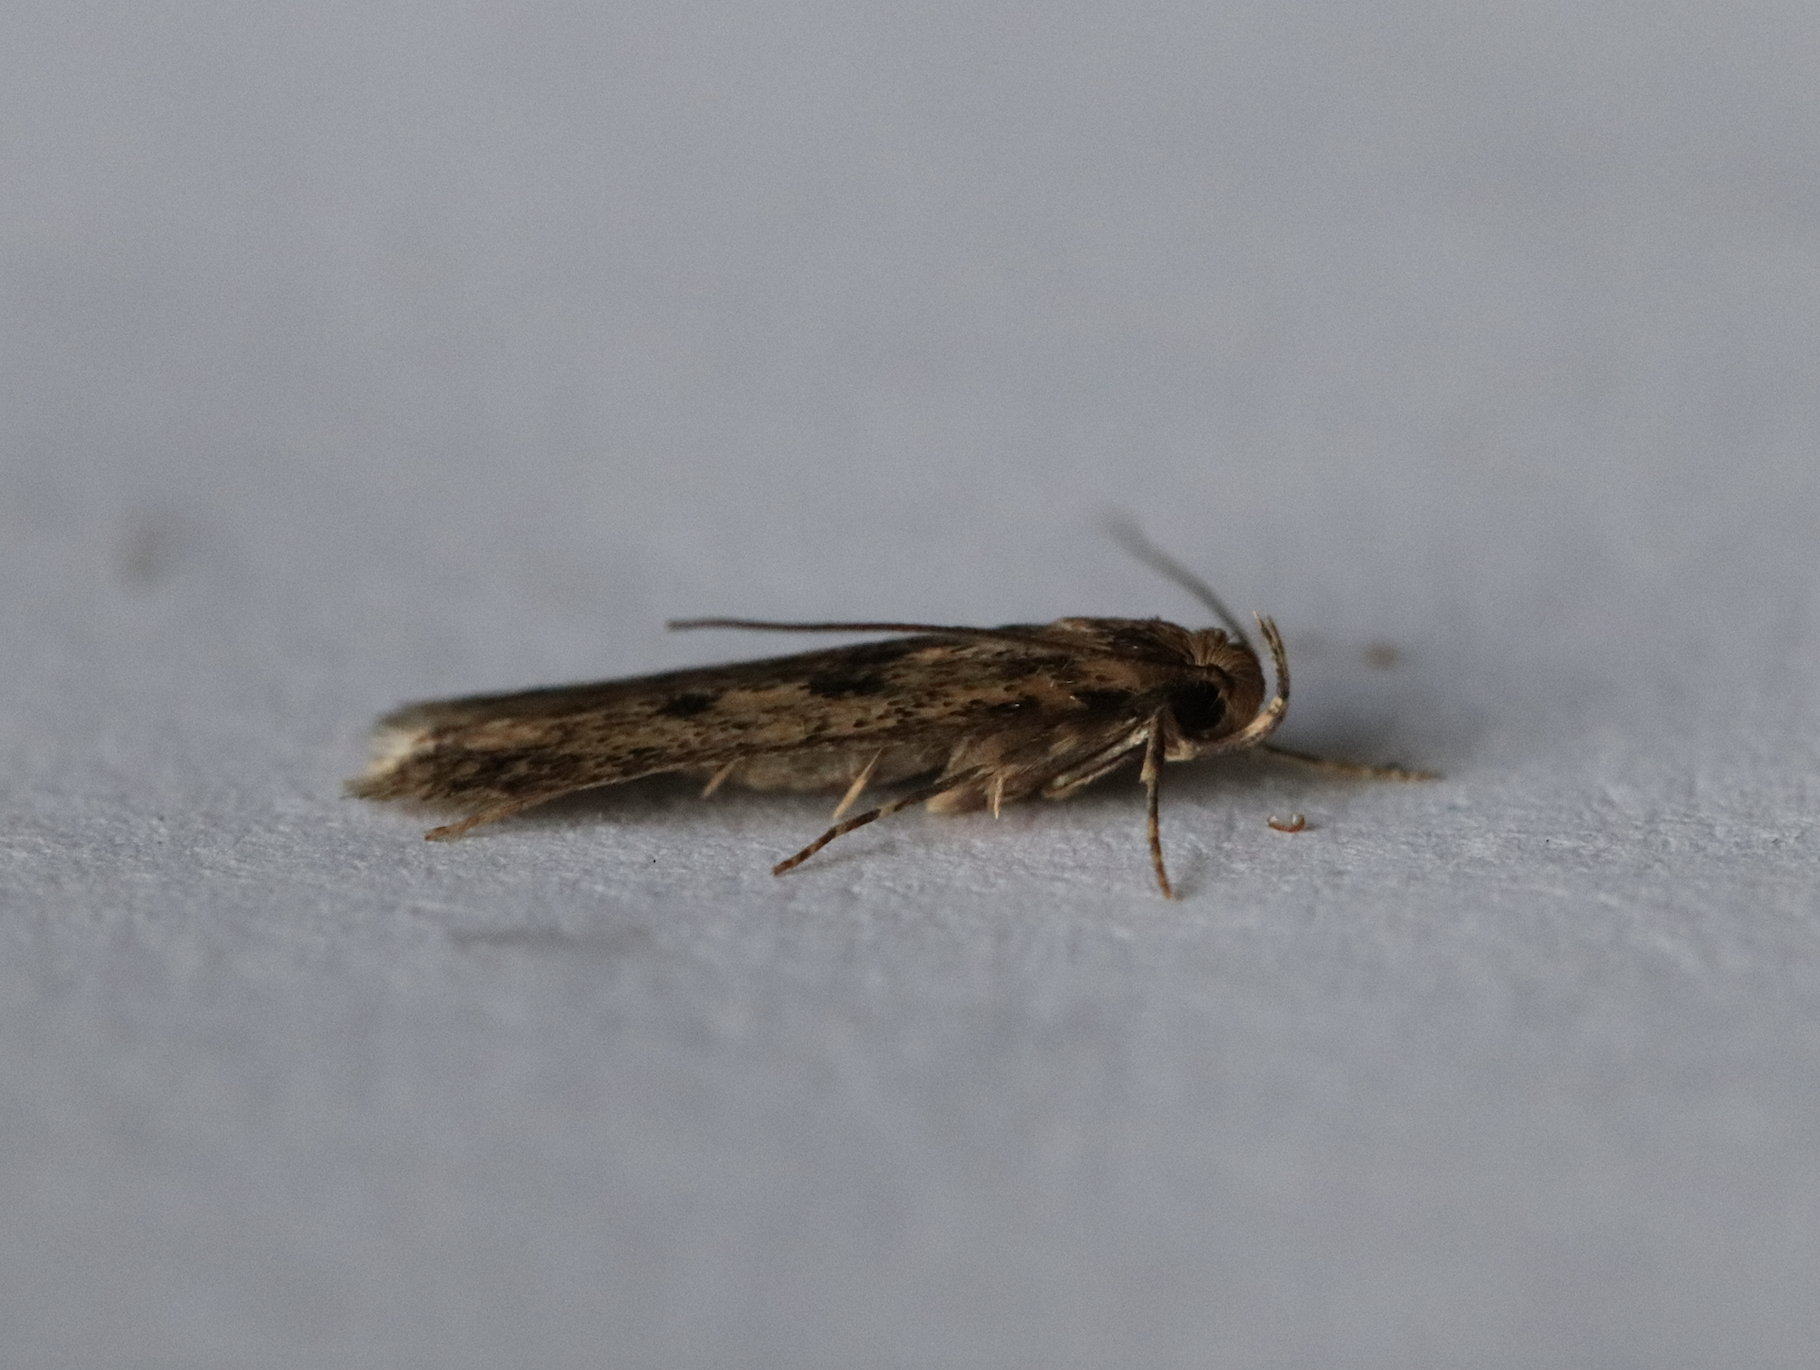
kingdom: Animalia
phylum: Arthropoda
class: Insecta
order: Lepidoptera
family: Oecophoridae
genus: Hofmannophila
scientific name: Hofmannophila pseudospretella
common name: Brown house moth
